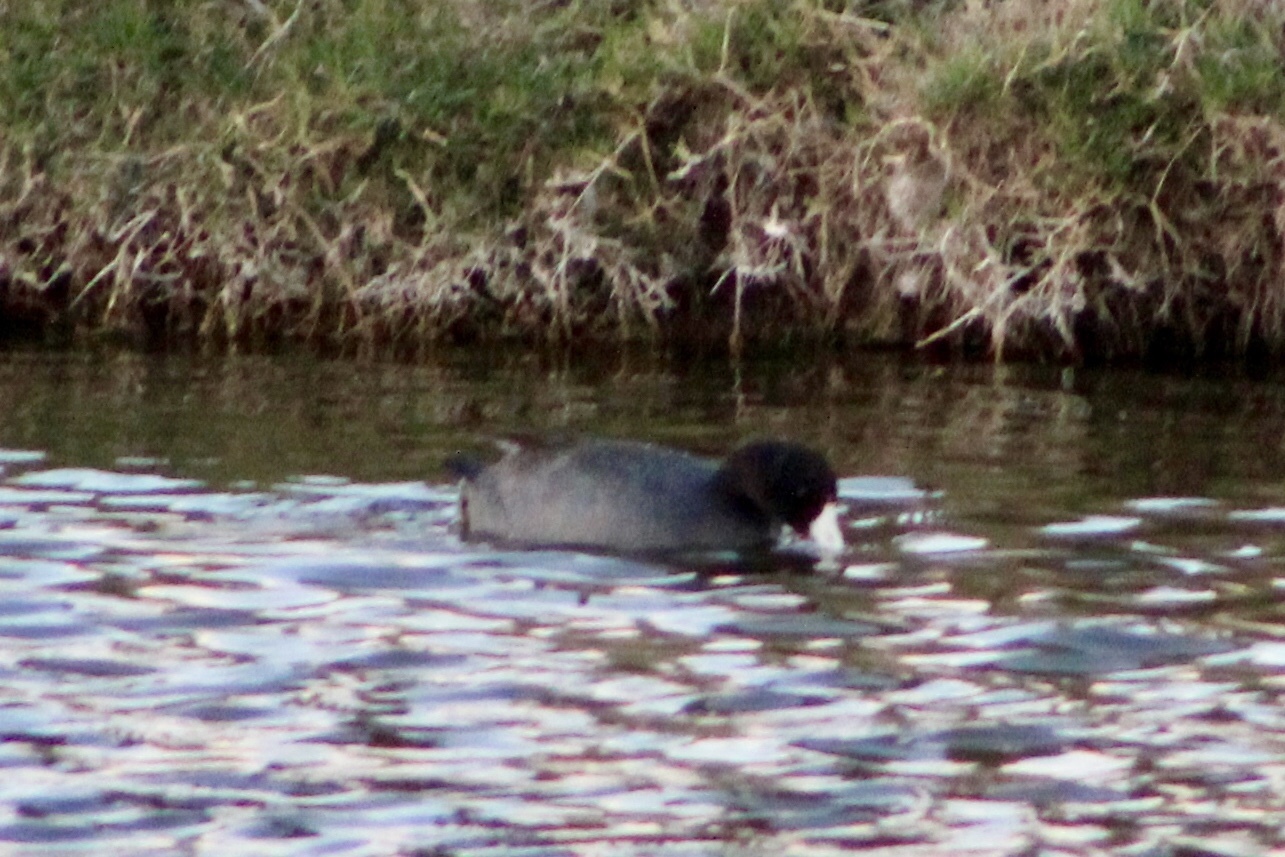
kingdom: Animalia
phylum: Chordata
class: Aves
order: Gruiformes
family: Rallidae
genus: Fulica
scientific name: Fulica americana
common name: American coot
